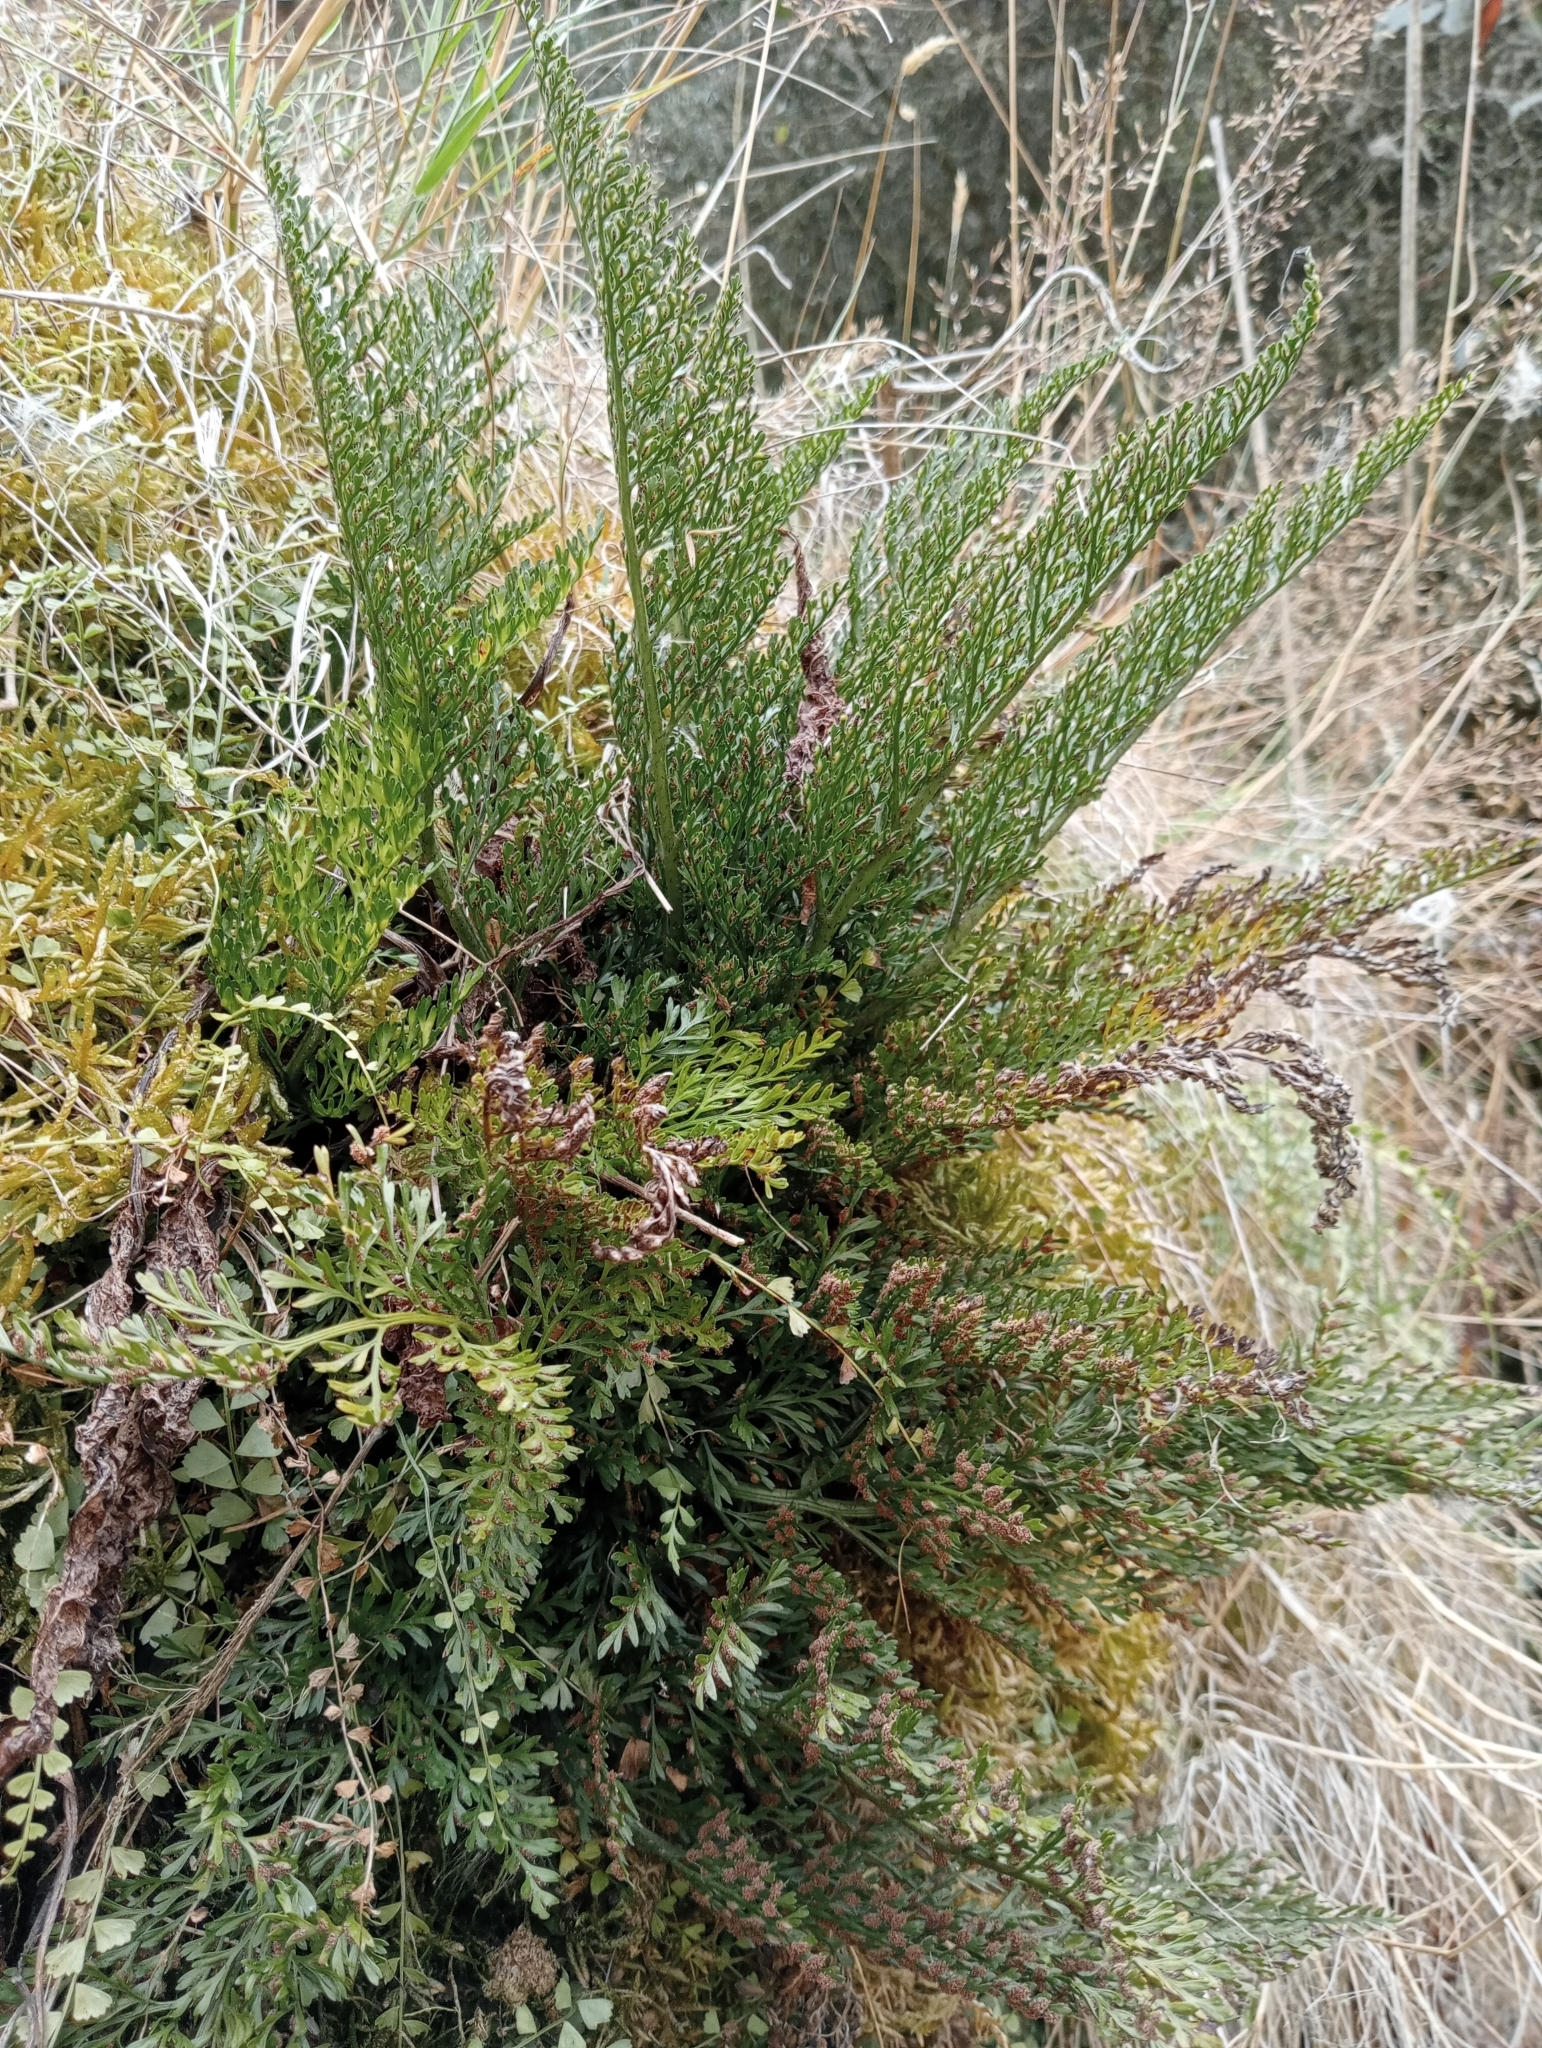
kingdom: Plantae
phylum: Tracheophyta
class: Polypodiopsida
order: Polypodiales
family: Aspleniaceae
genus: Asplenium
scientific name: Asplenium richardii
